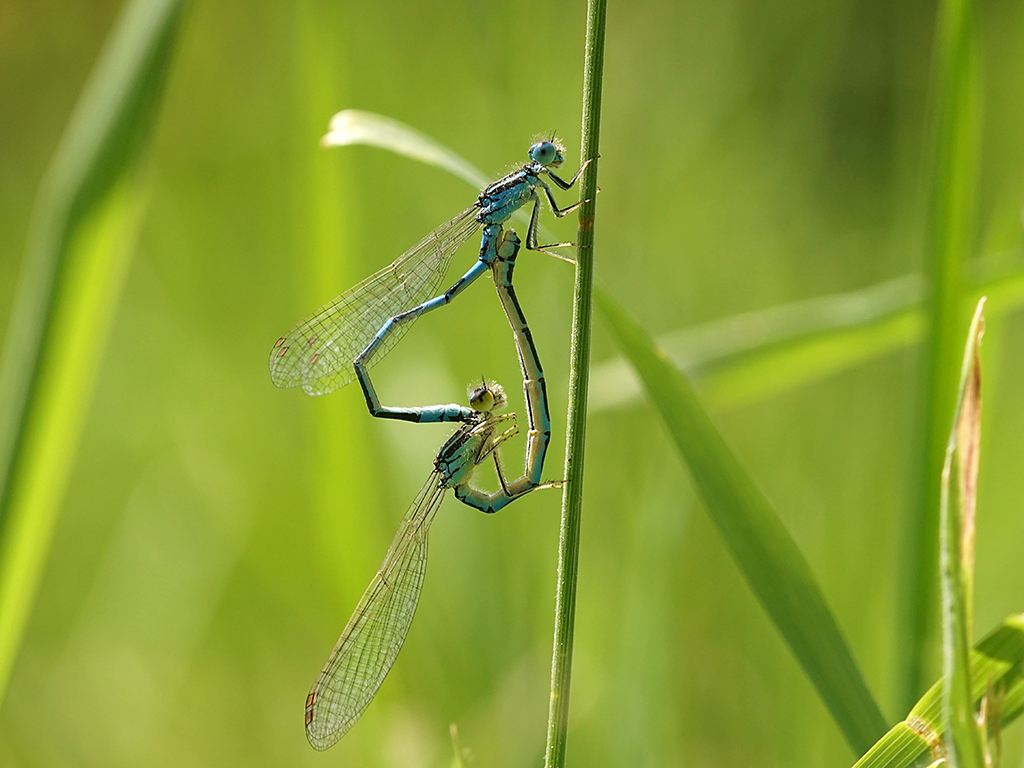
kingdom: Animalia
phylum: Arthropoda
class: Insecta
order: Odonata
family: Coenagrionidae
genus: Coenagrion
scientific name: Coenagrion scitulum
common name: Dainty bluet
